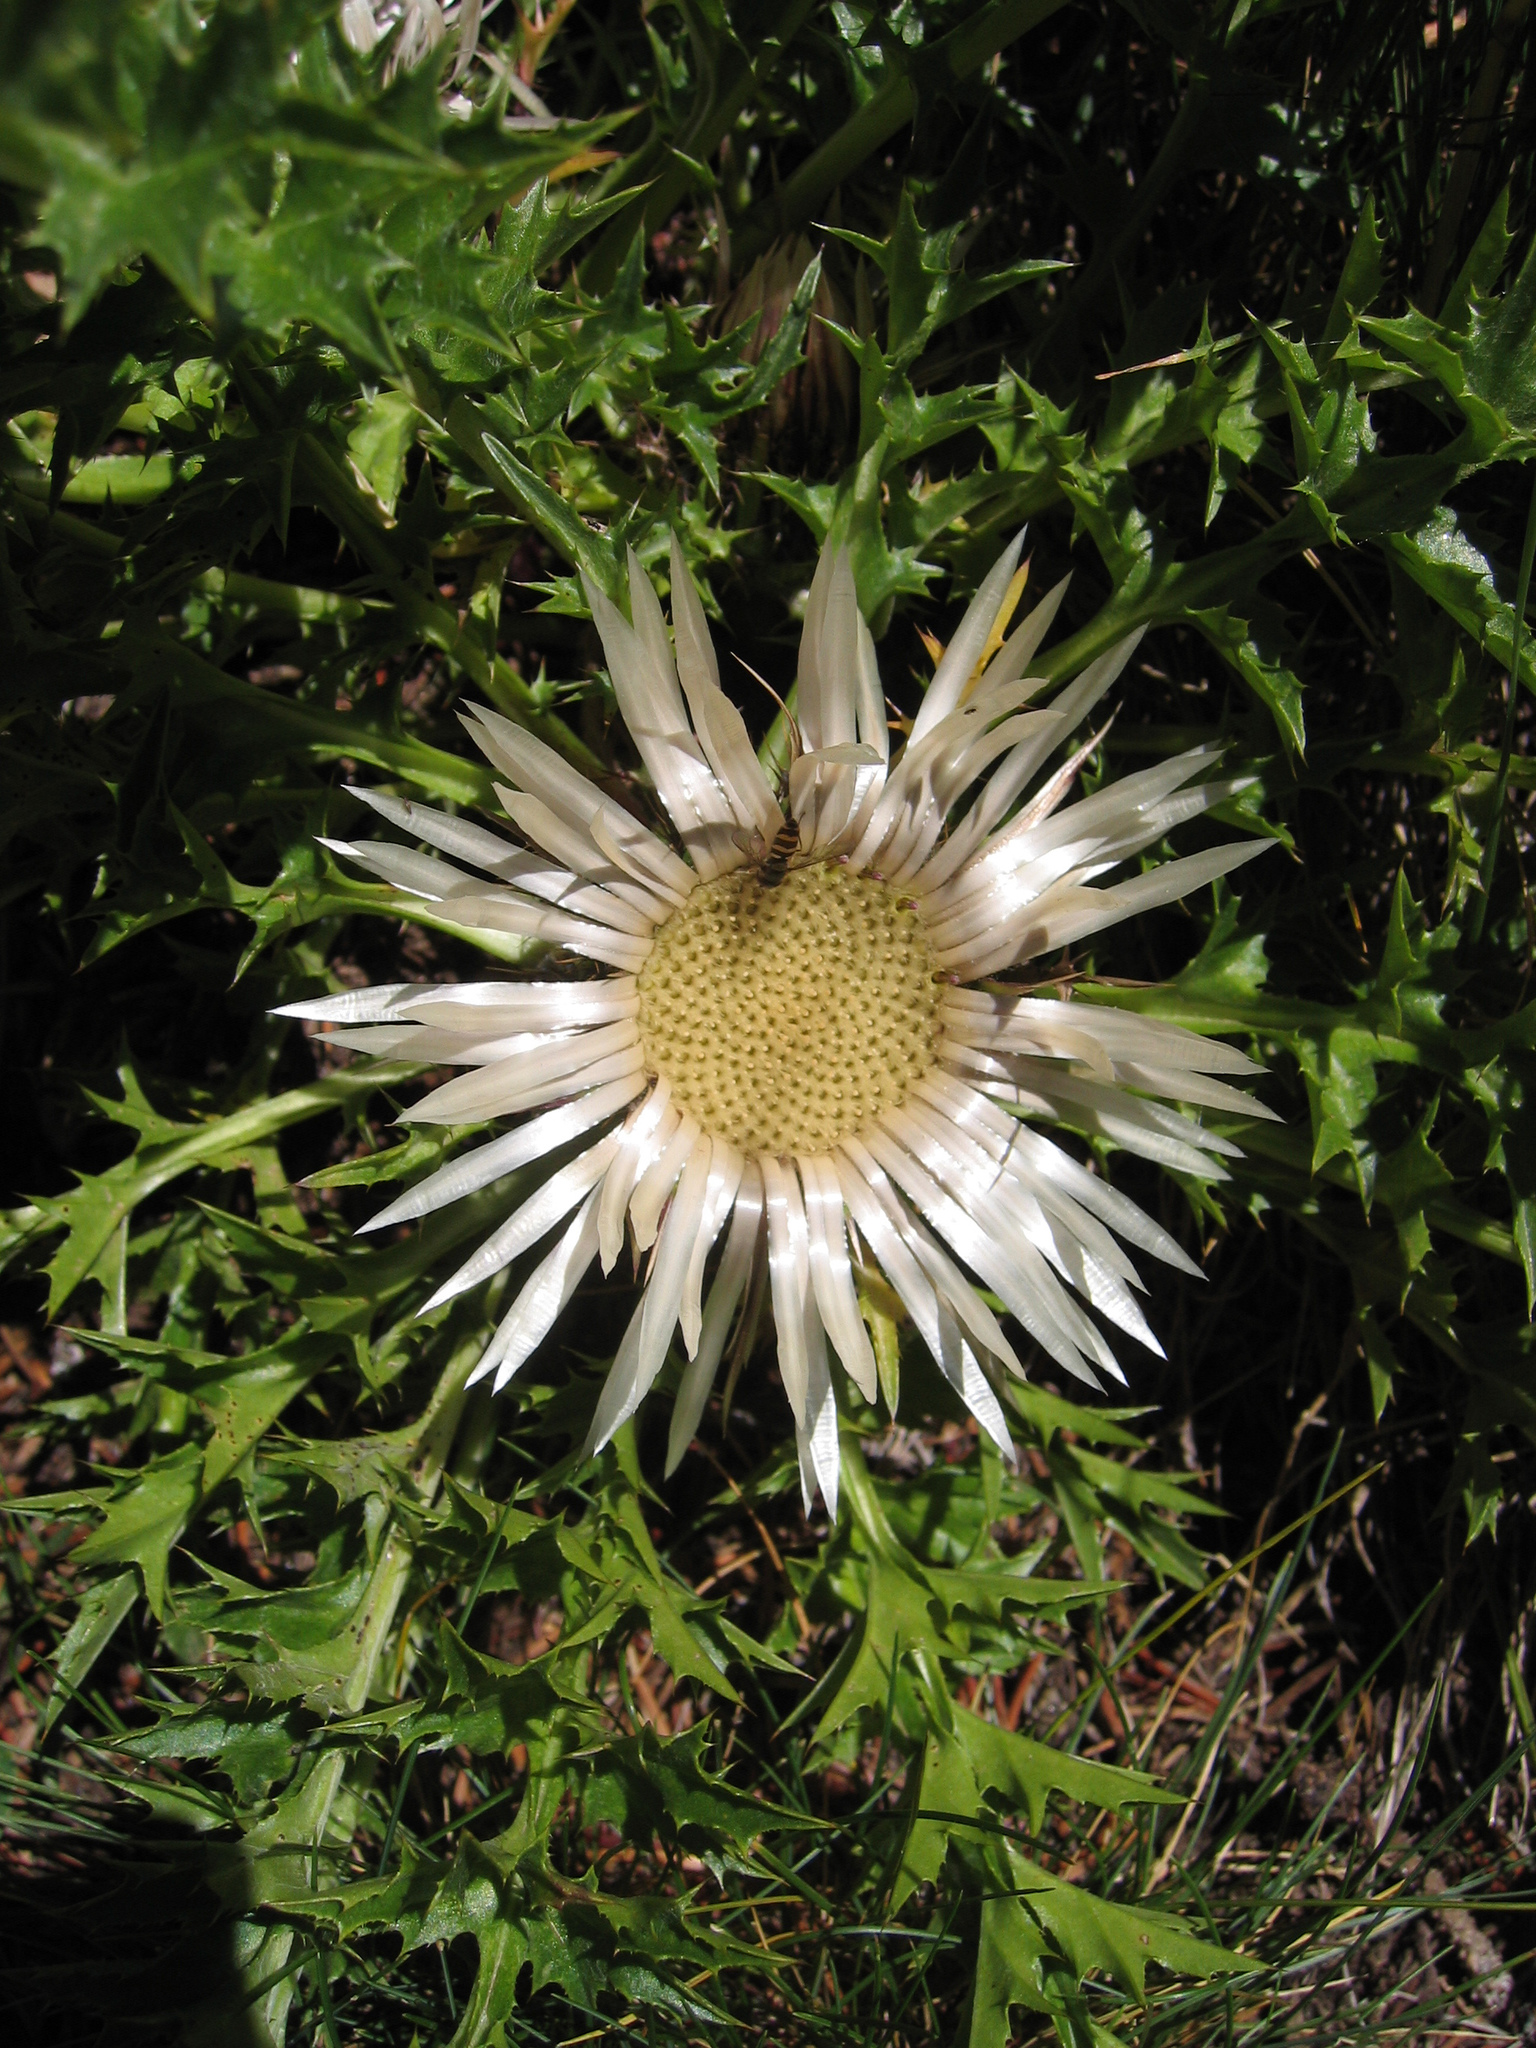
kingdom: Plantae
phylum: Tracheophyta
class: Magnoliopsida
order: Asterales
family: Asteraceae
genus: Carlina
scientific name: Carlina acaulis
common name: Stemless carline thistle
